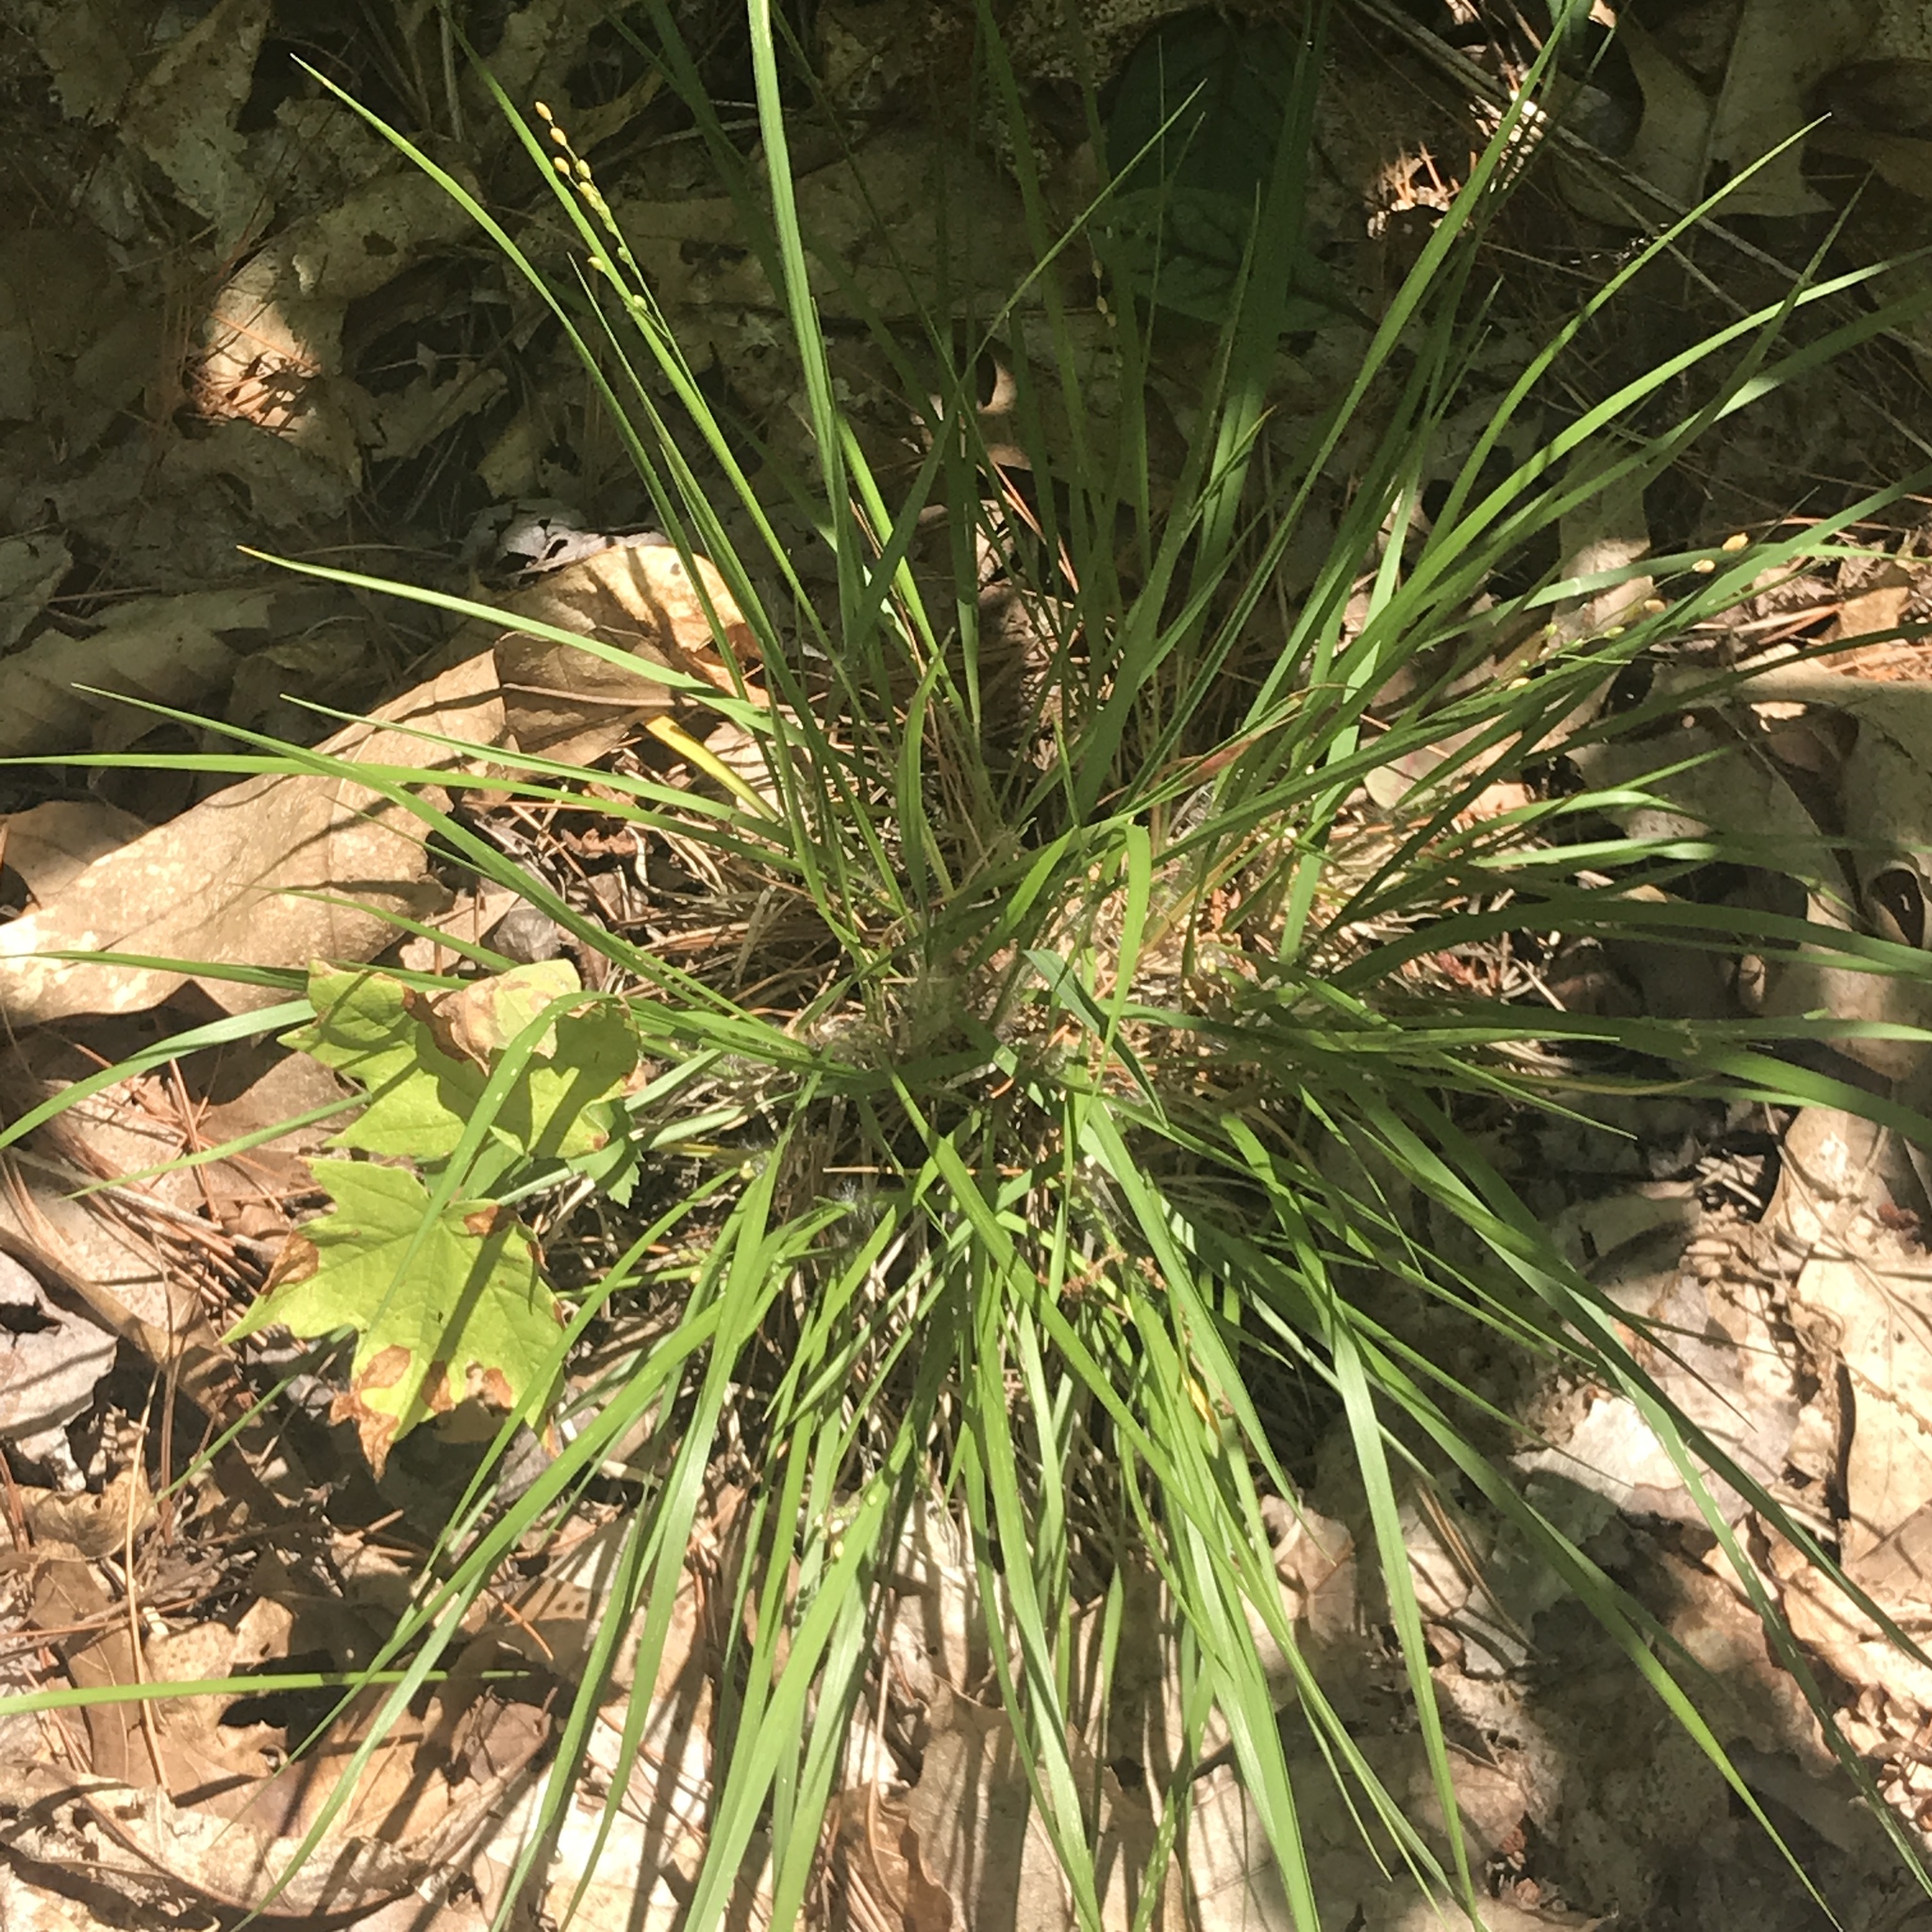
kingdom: Plantae
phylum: Tracheophyta
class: Liliopsida
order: Poales
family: Poaceae
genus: Dichanthelium
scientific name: Dichanthelium depauperatum
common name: Depauperate panicgrass
